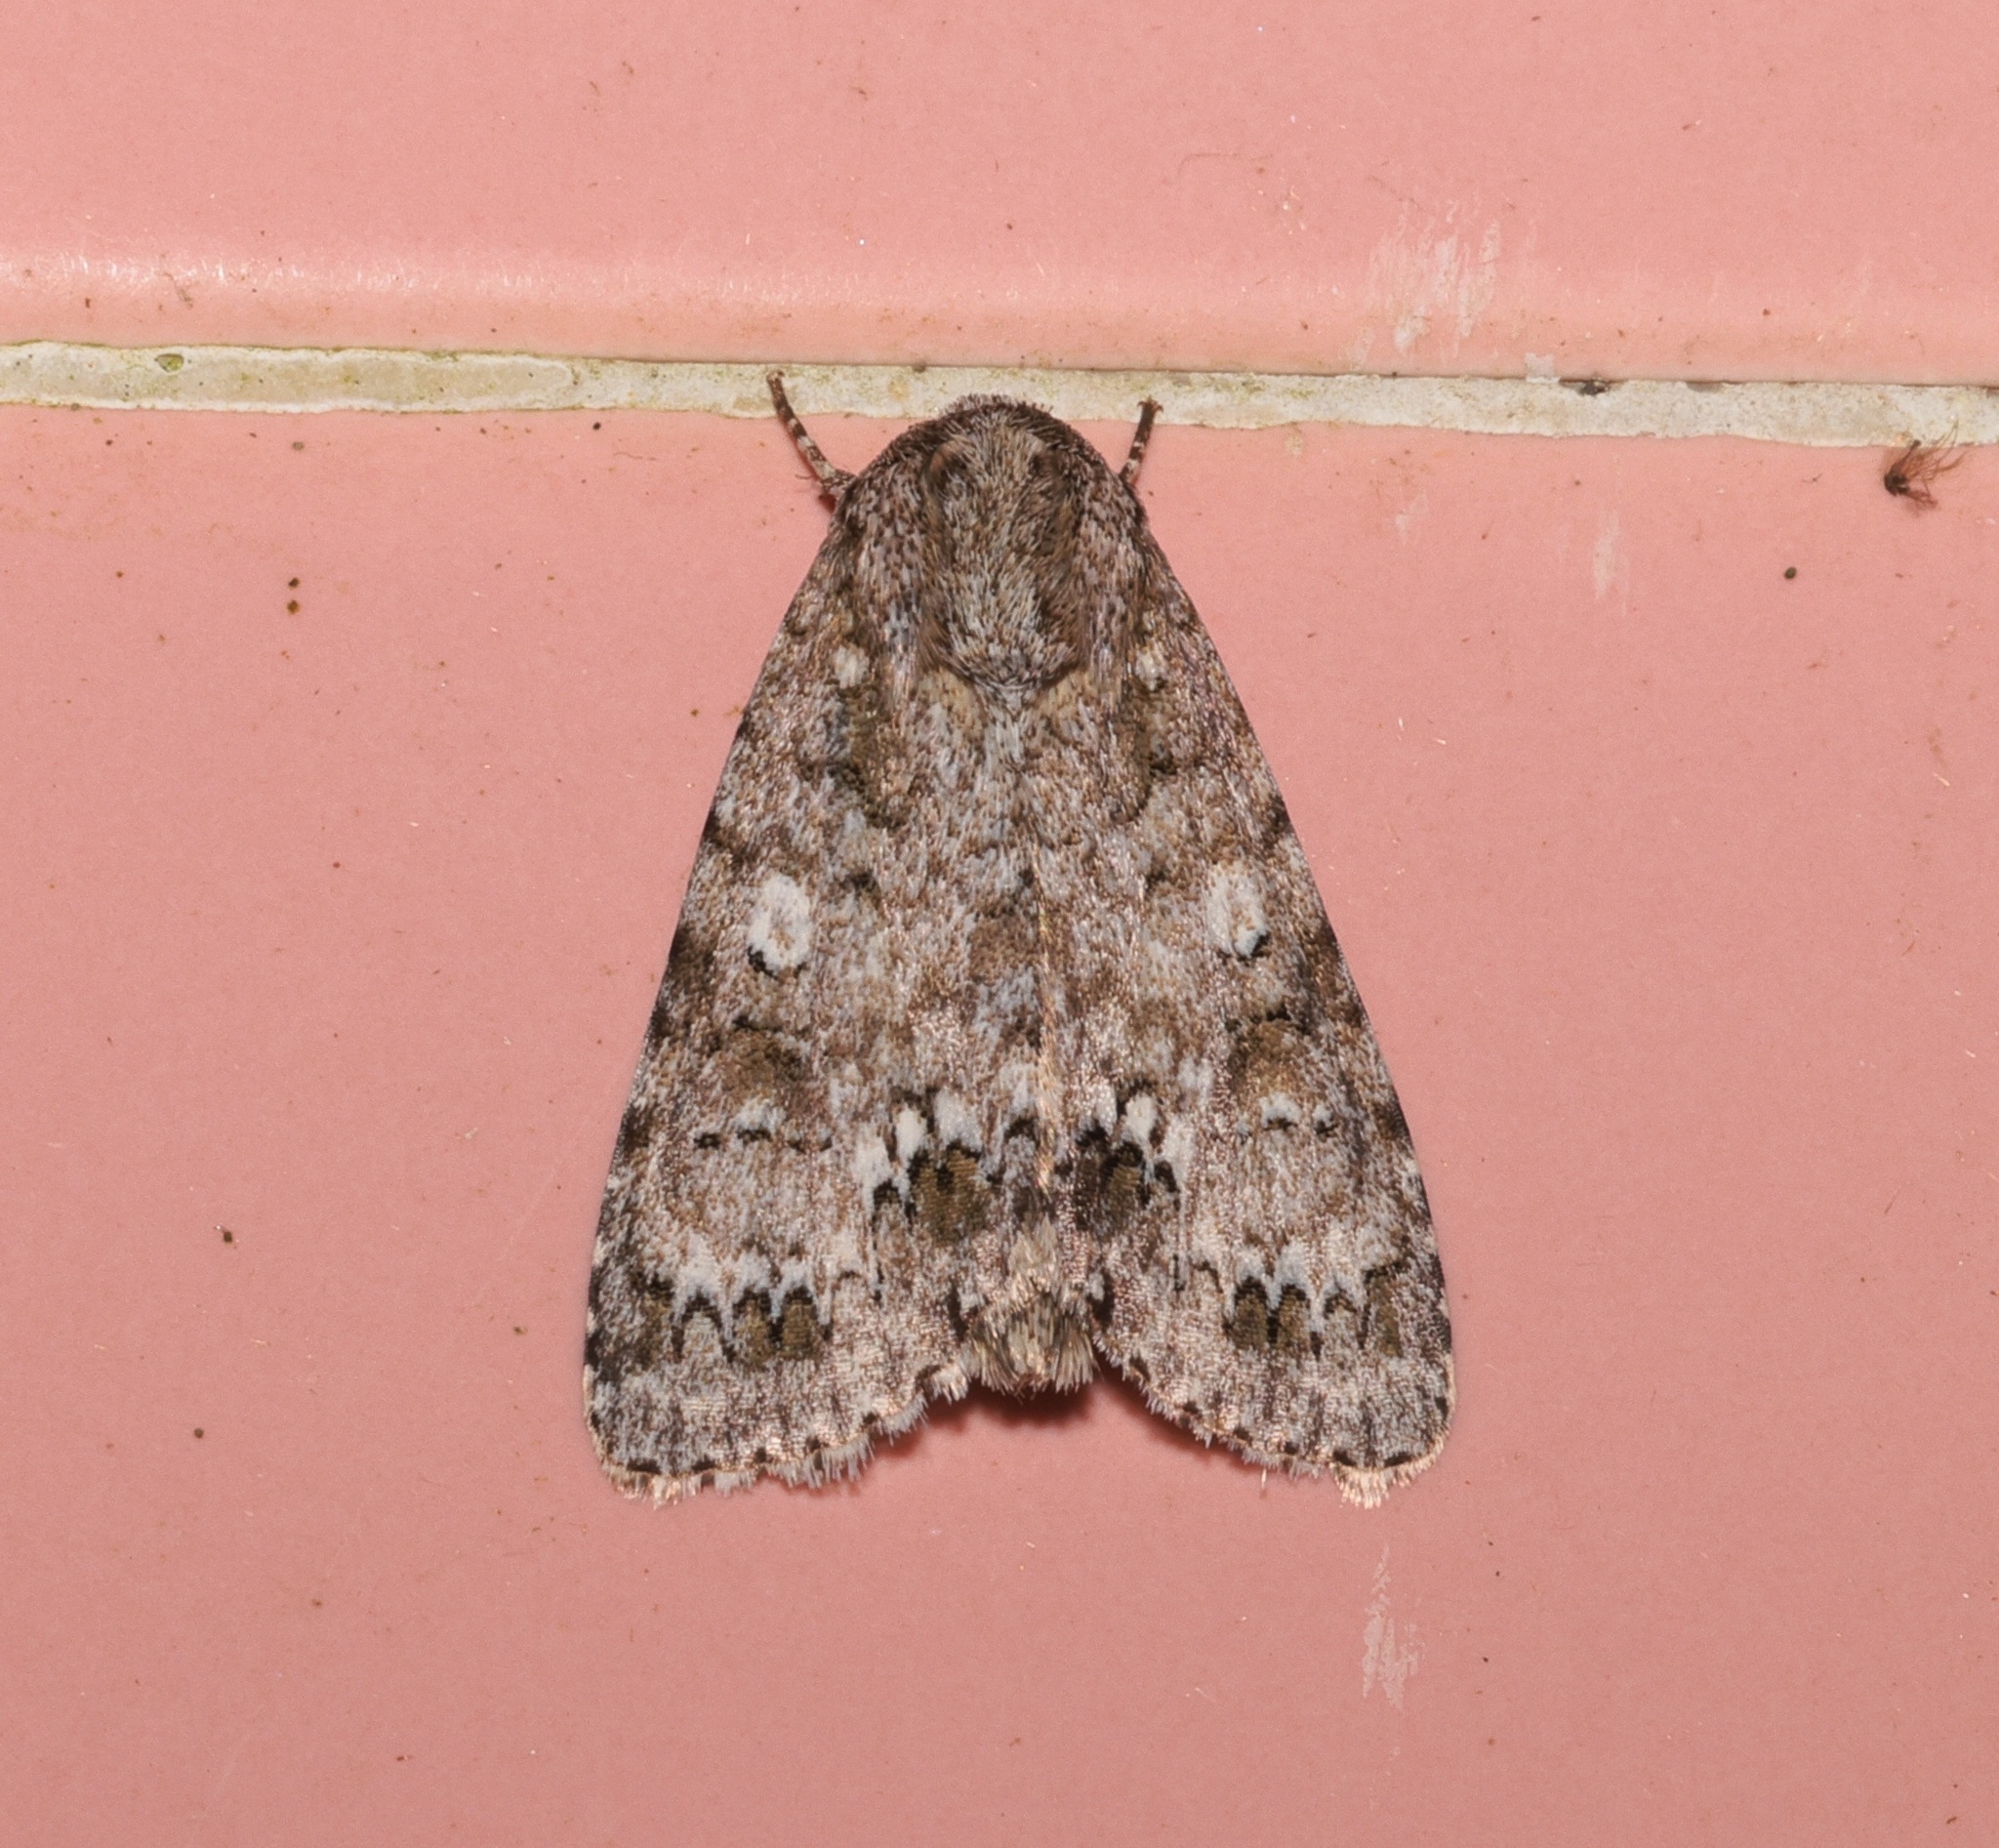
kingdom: Animalia
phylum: Arthropoda
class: Insecta
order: Lepidoptera
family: Noctuidae
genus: Acronicta
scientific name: Acronicta pruinosa
